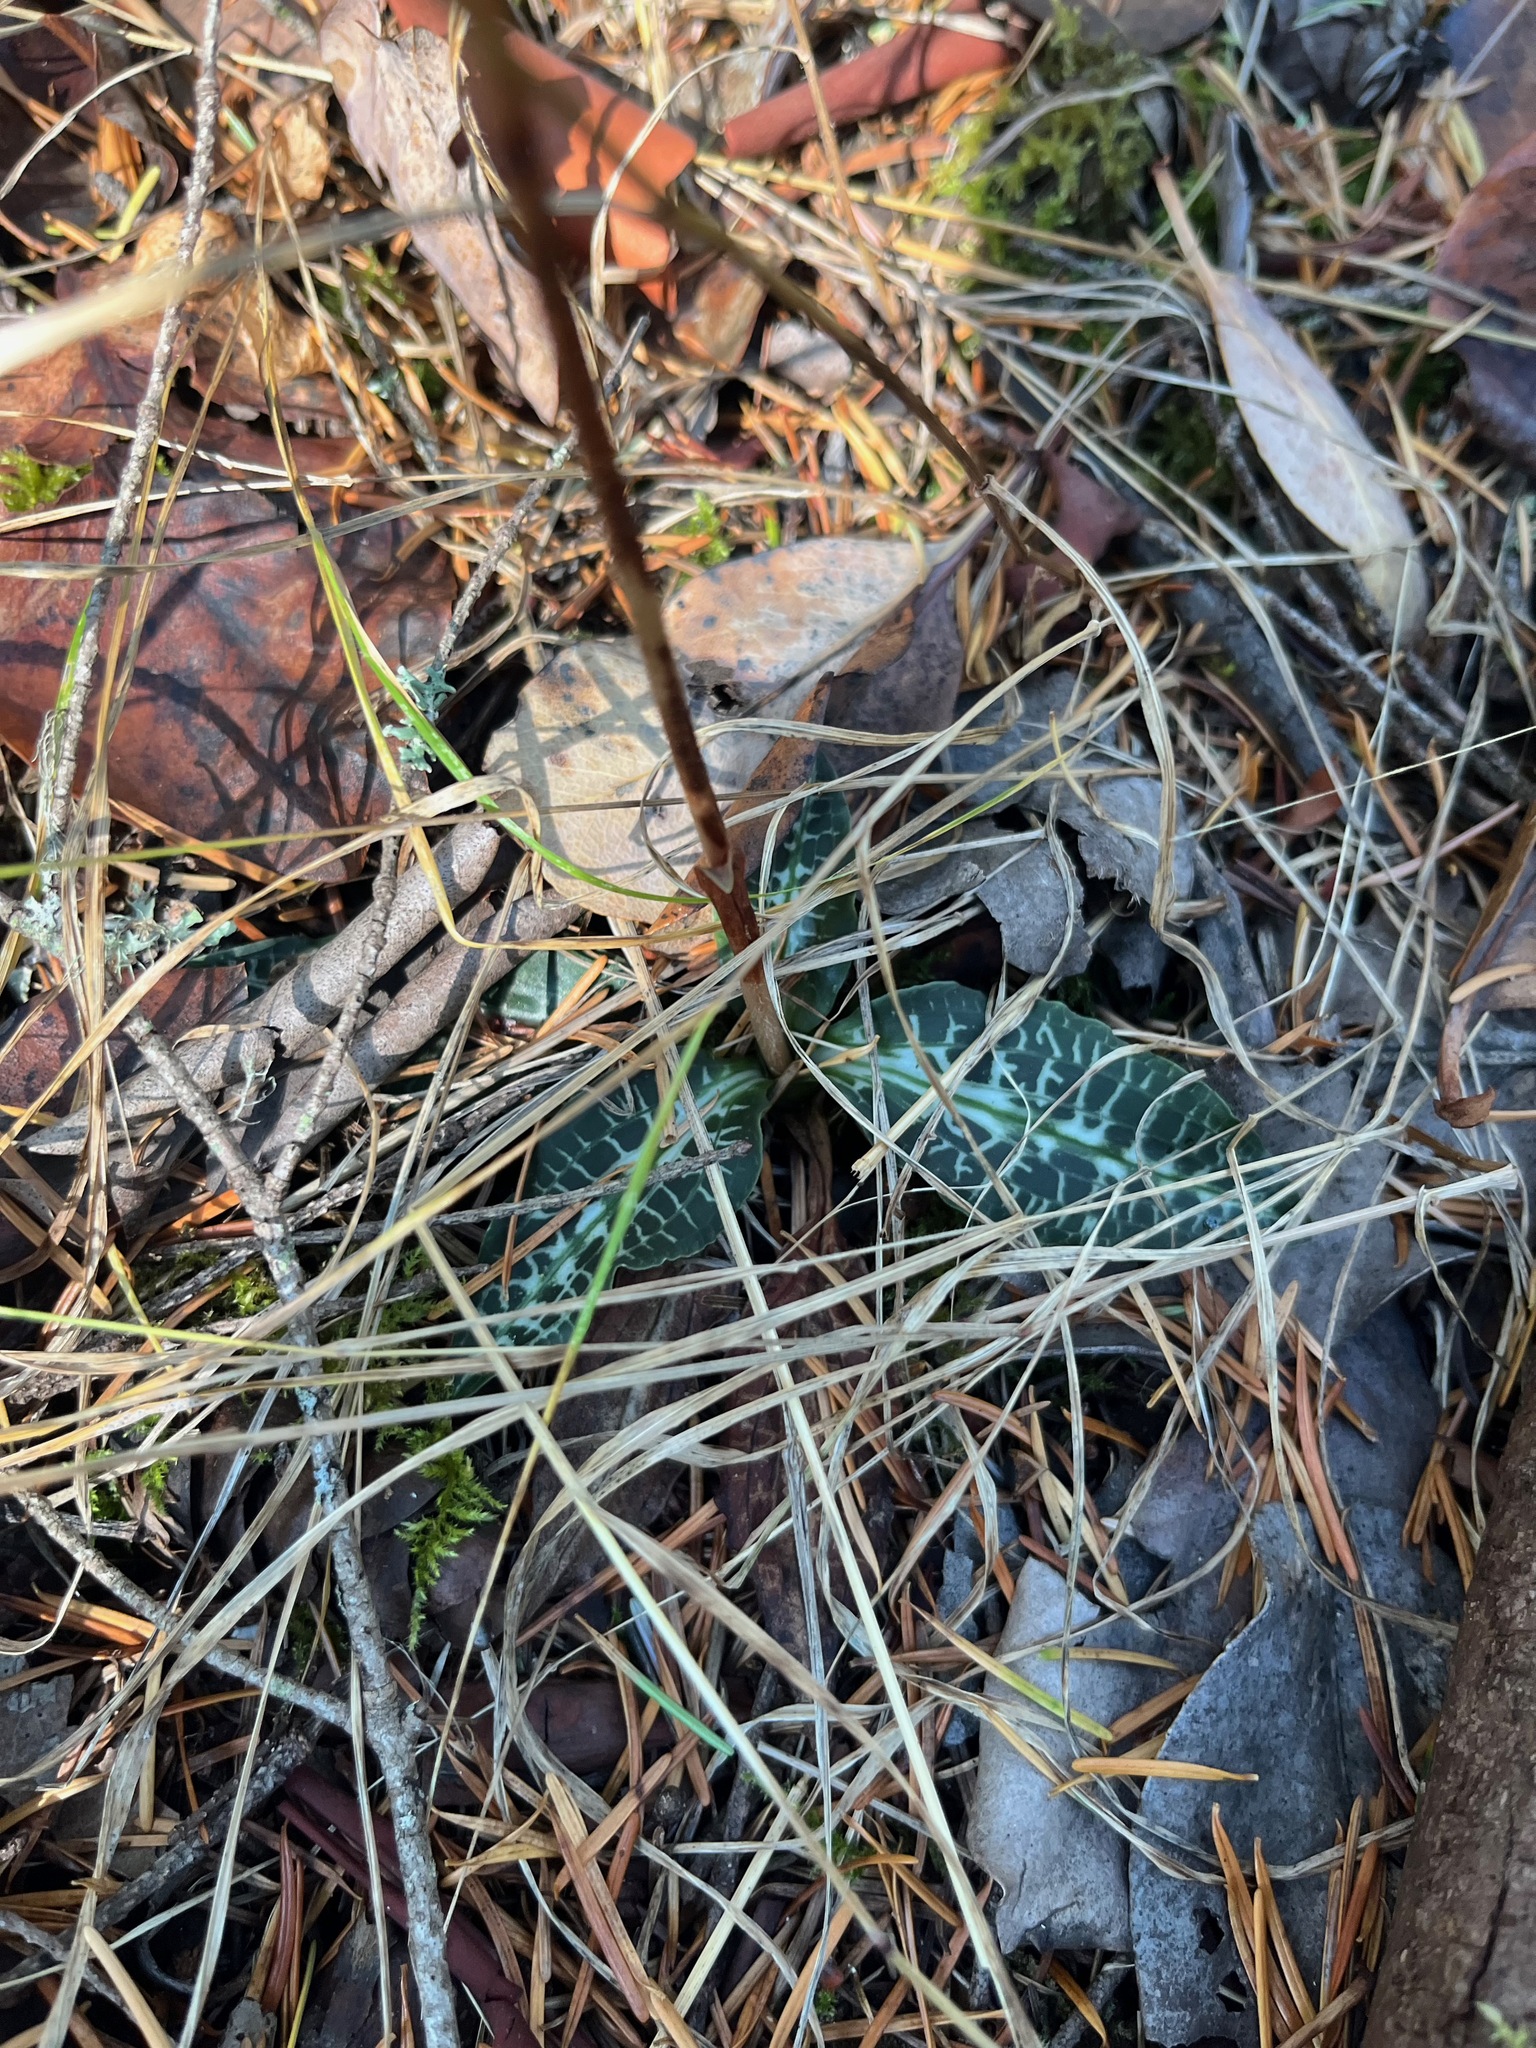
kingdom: Plantae
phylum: Tracheophyta
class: Liliopsida
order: Asparagales
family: Orchidaceae
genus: Goodyera
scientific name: Goodyera oblongifolia
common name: Giant rattlesnake-plantain
